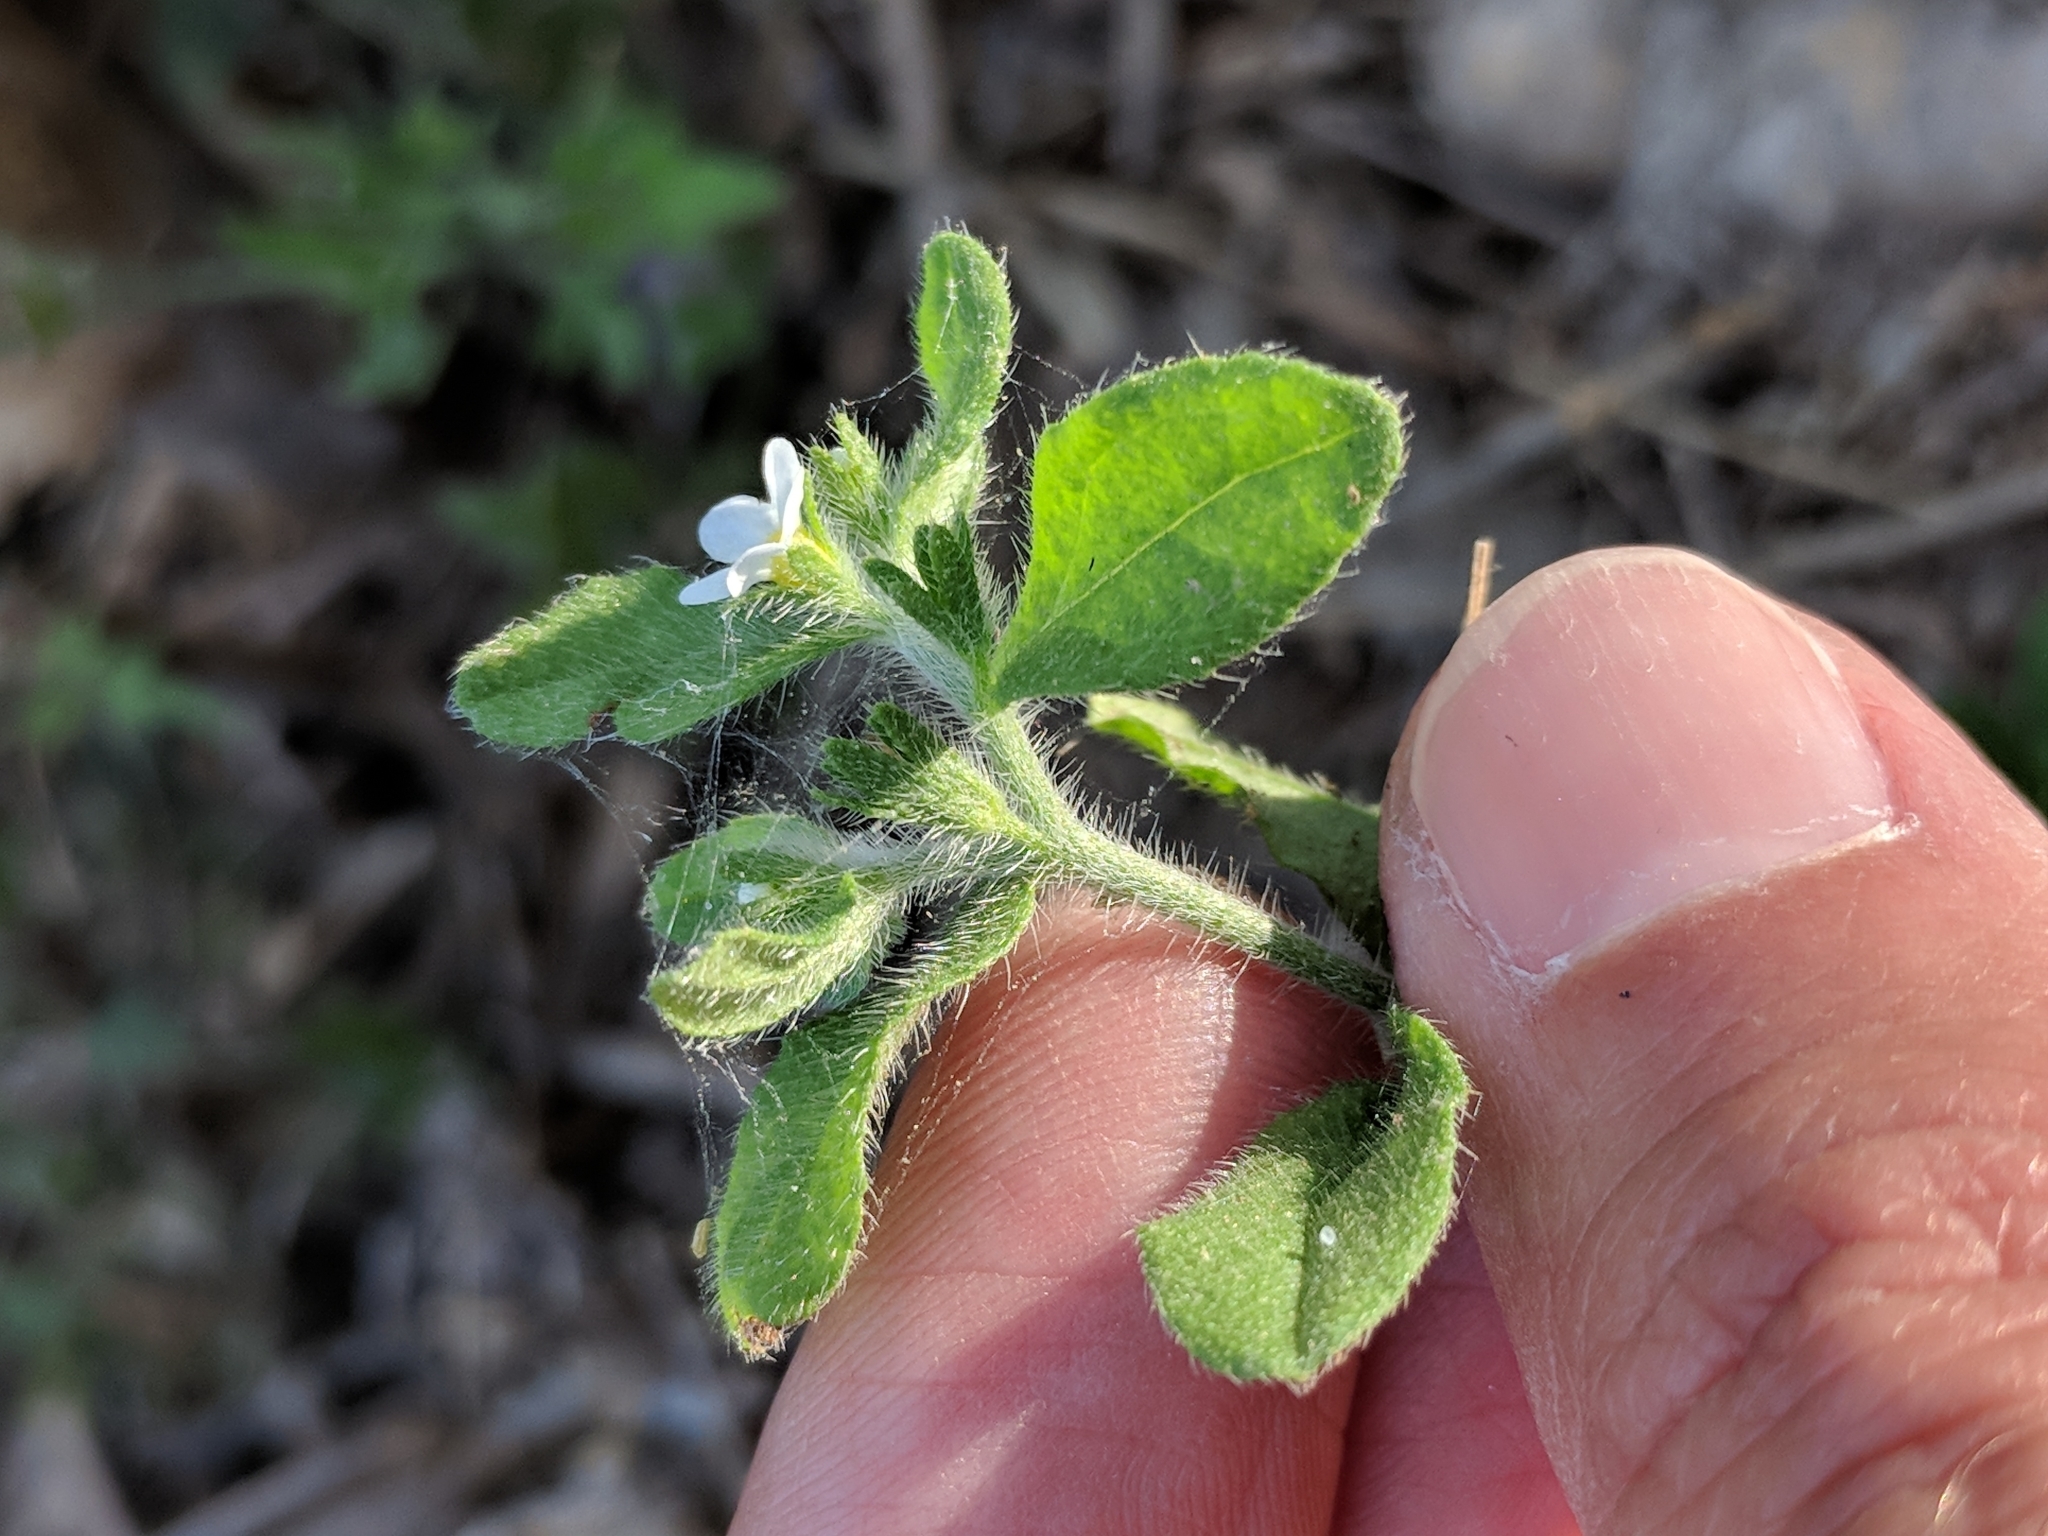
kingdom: Plantae
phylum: Tracheophyta
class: Magnoliopsida
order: Boraginales
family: Boraginaceae
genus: Lithospermum
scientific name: Lithospermum matamorense
